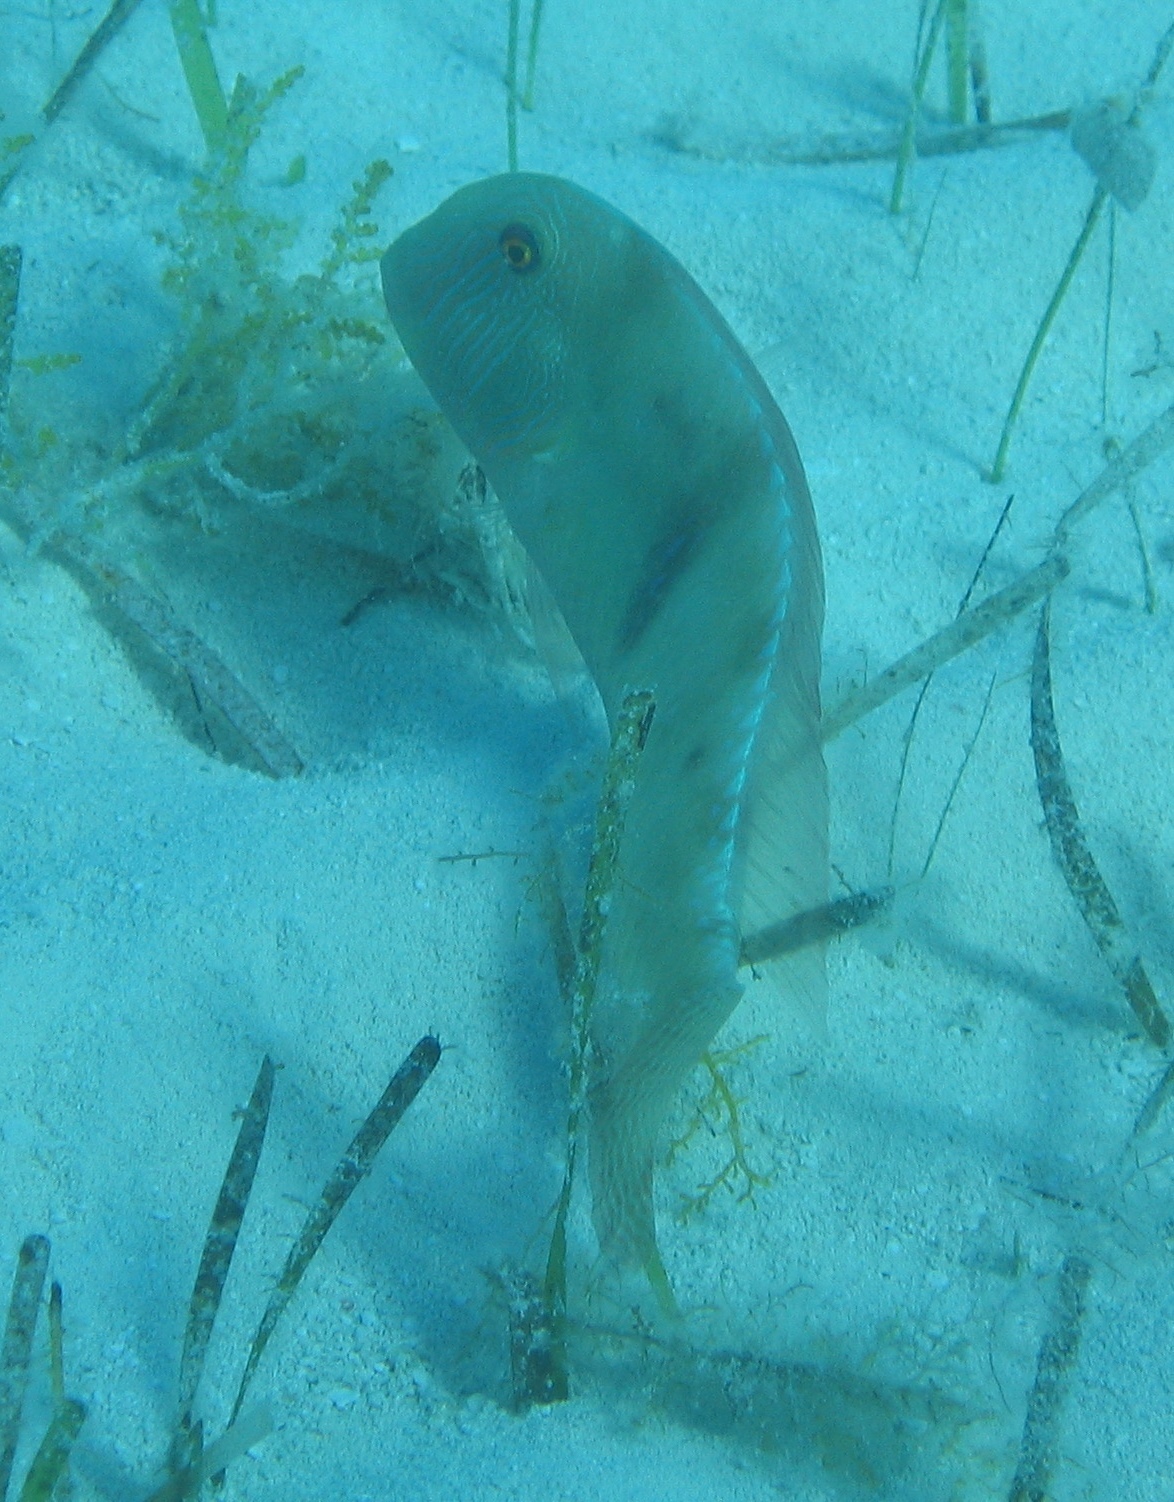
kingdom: Animalia
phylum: Chordata
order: Perciformes
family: Labridae
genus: Xyrichtys
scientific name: Xyrichtys splendens
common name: Green razorfish
